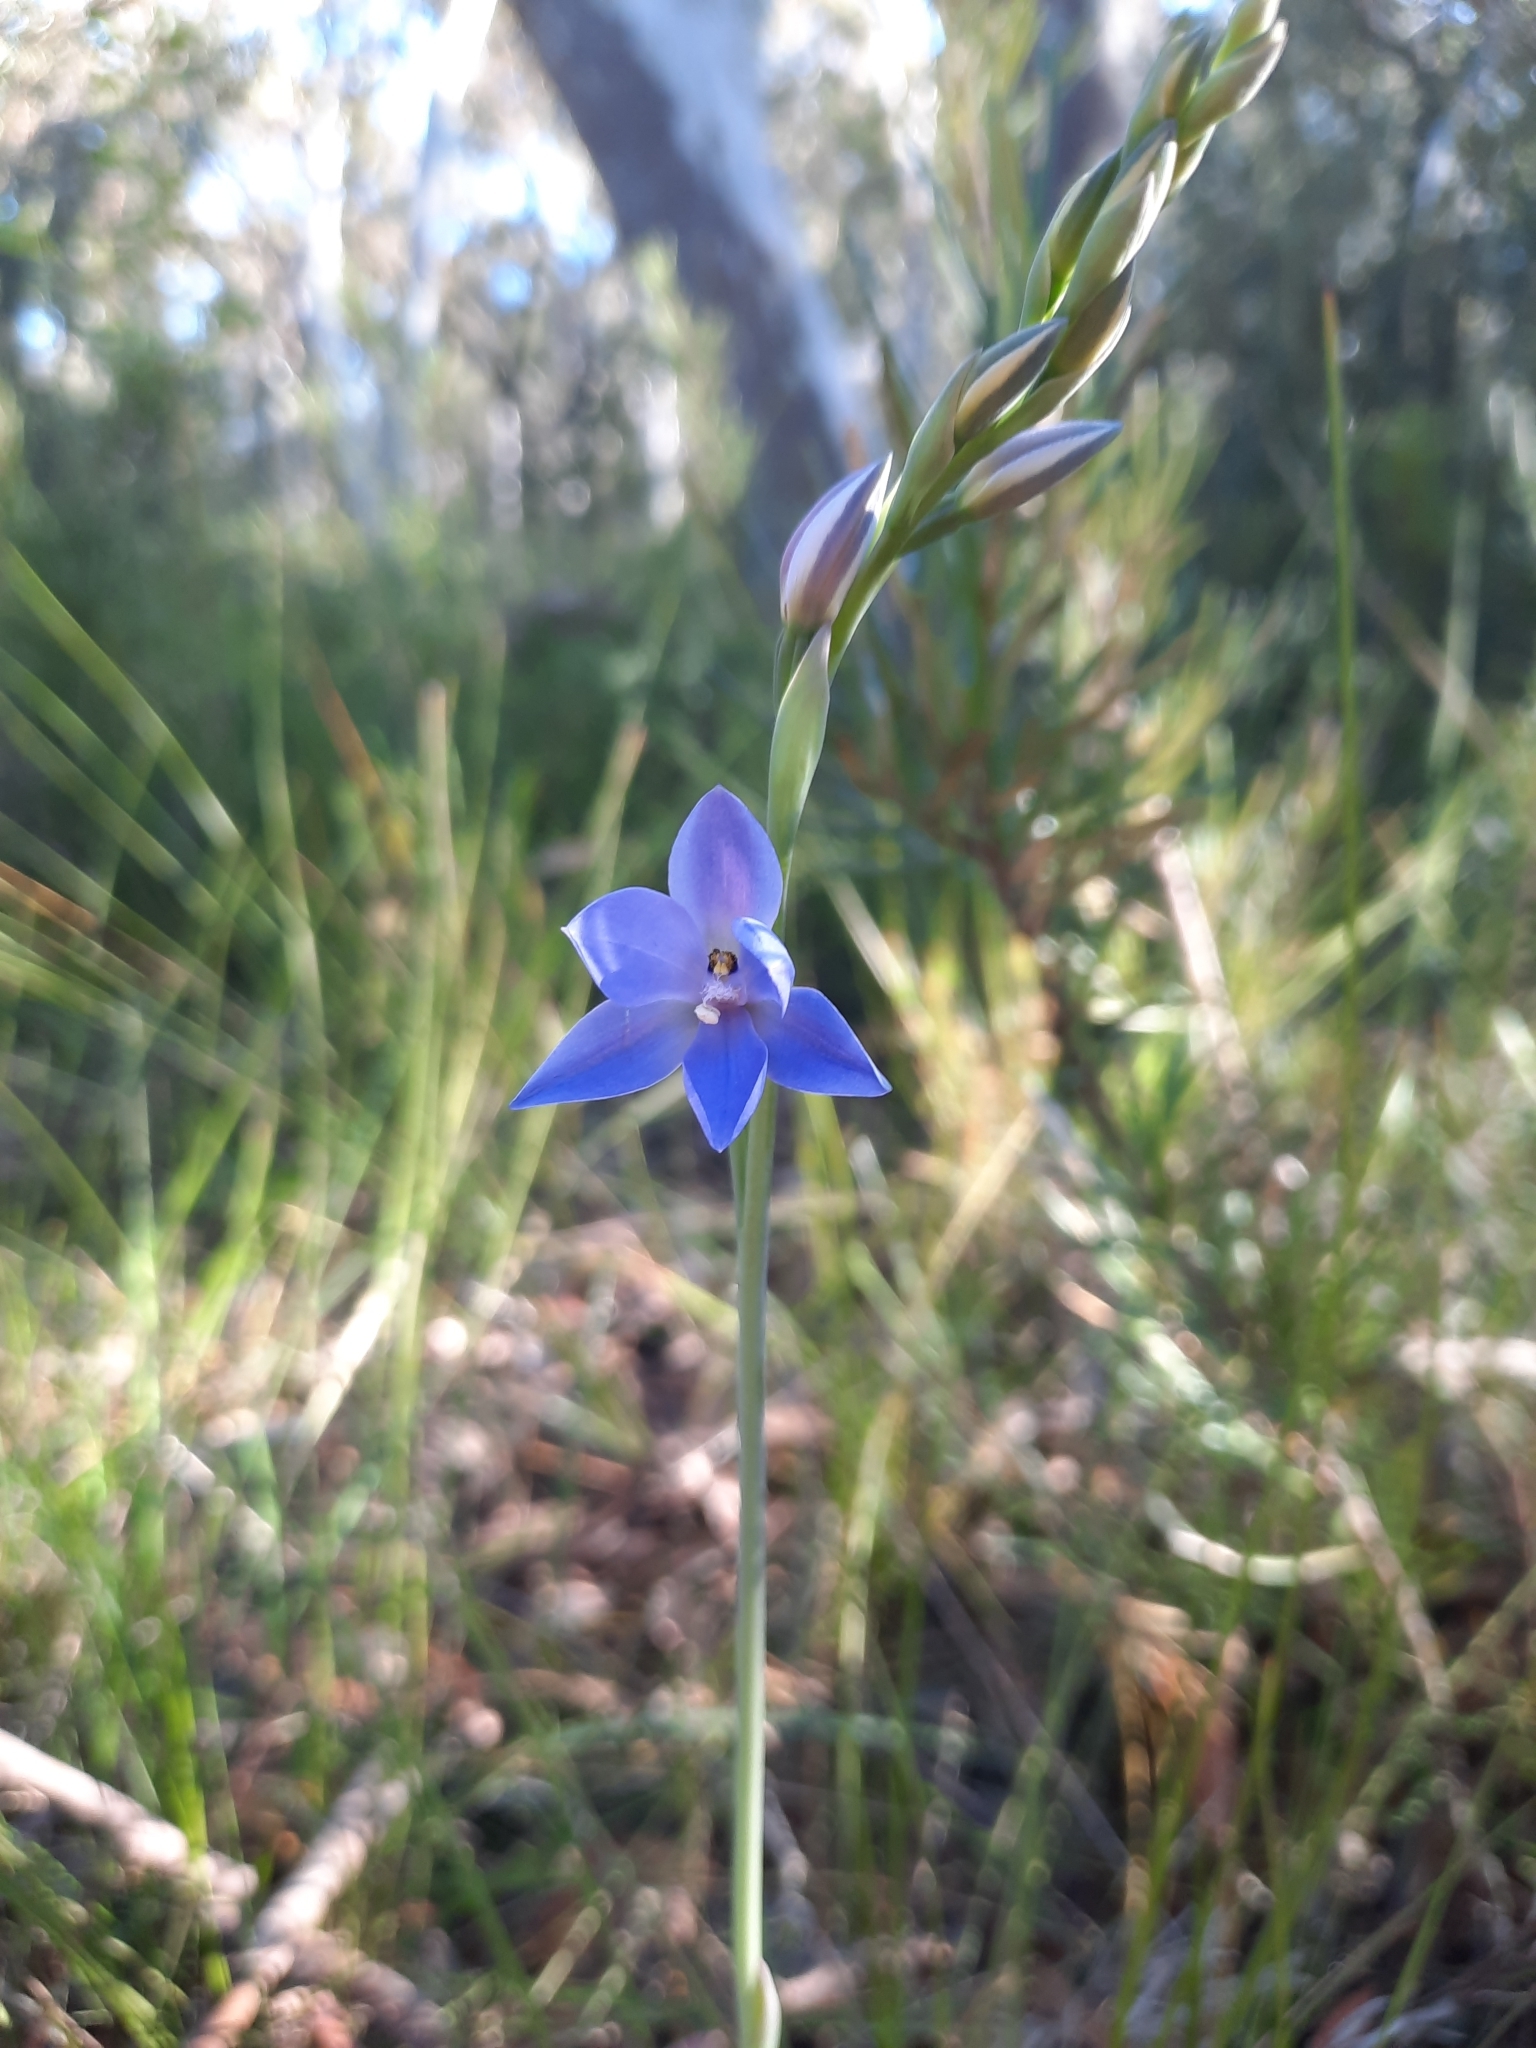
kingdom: Plantae
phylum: Tracheophyta
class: Liliopsida
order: Asparagales
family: Orchidaceae
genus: Thelymitra
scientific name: Thelymitra ixioides
